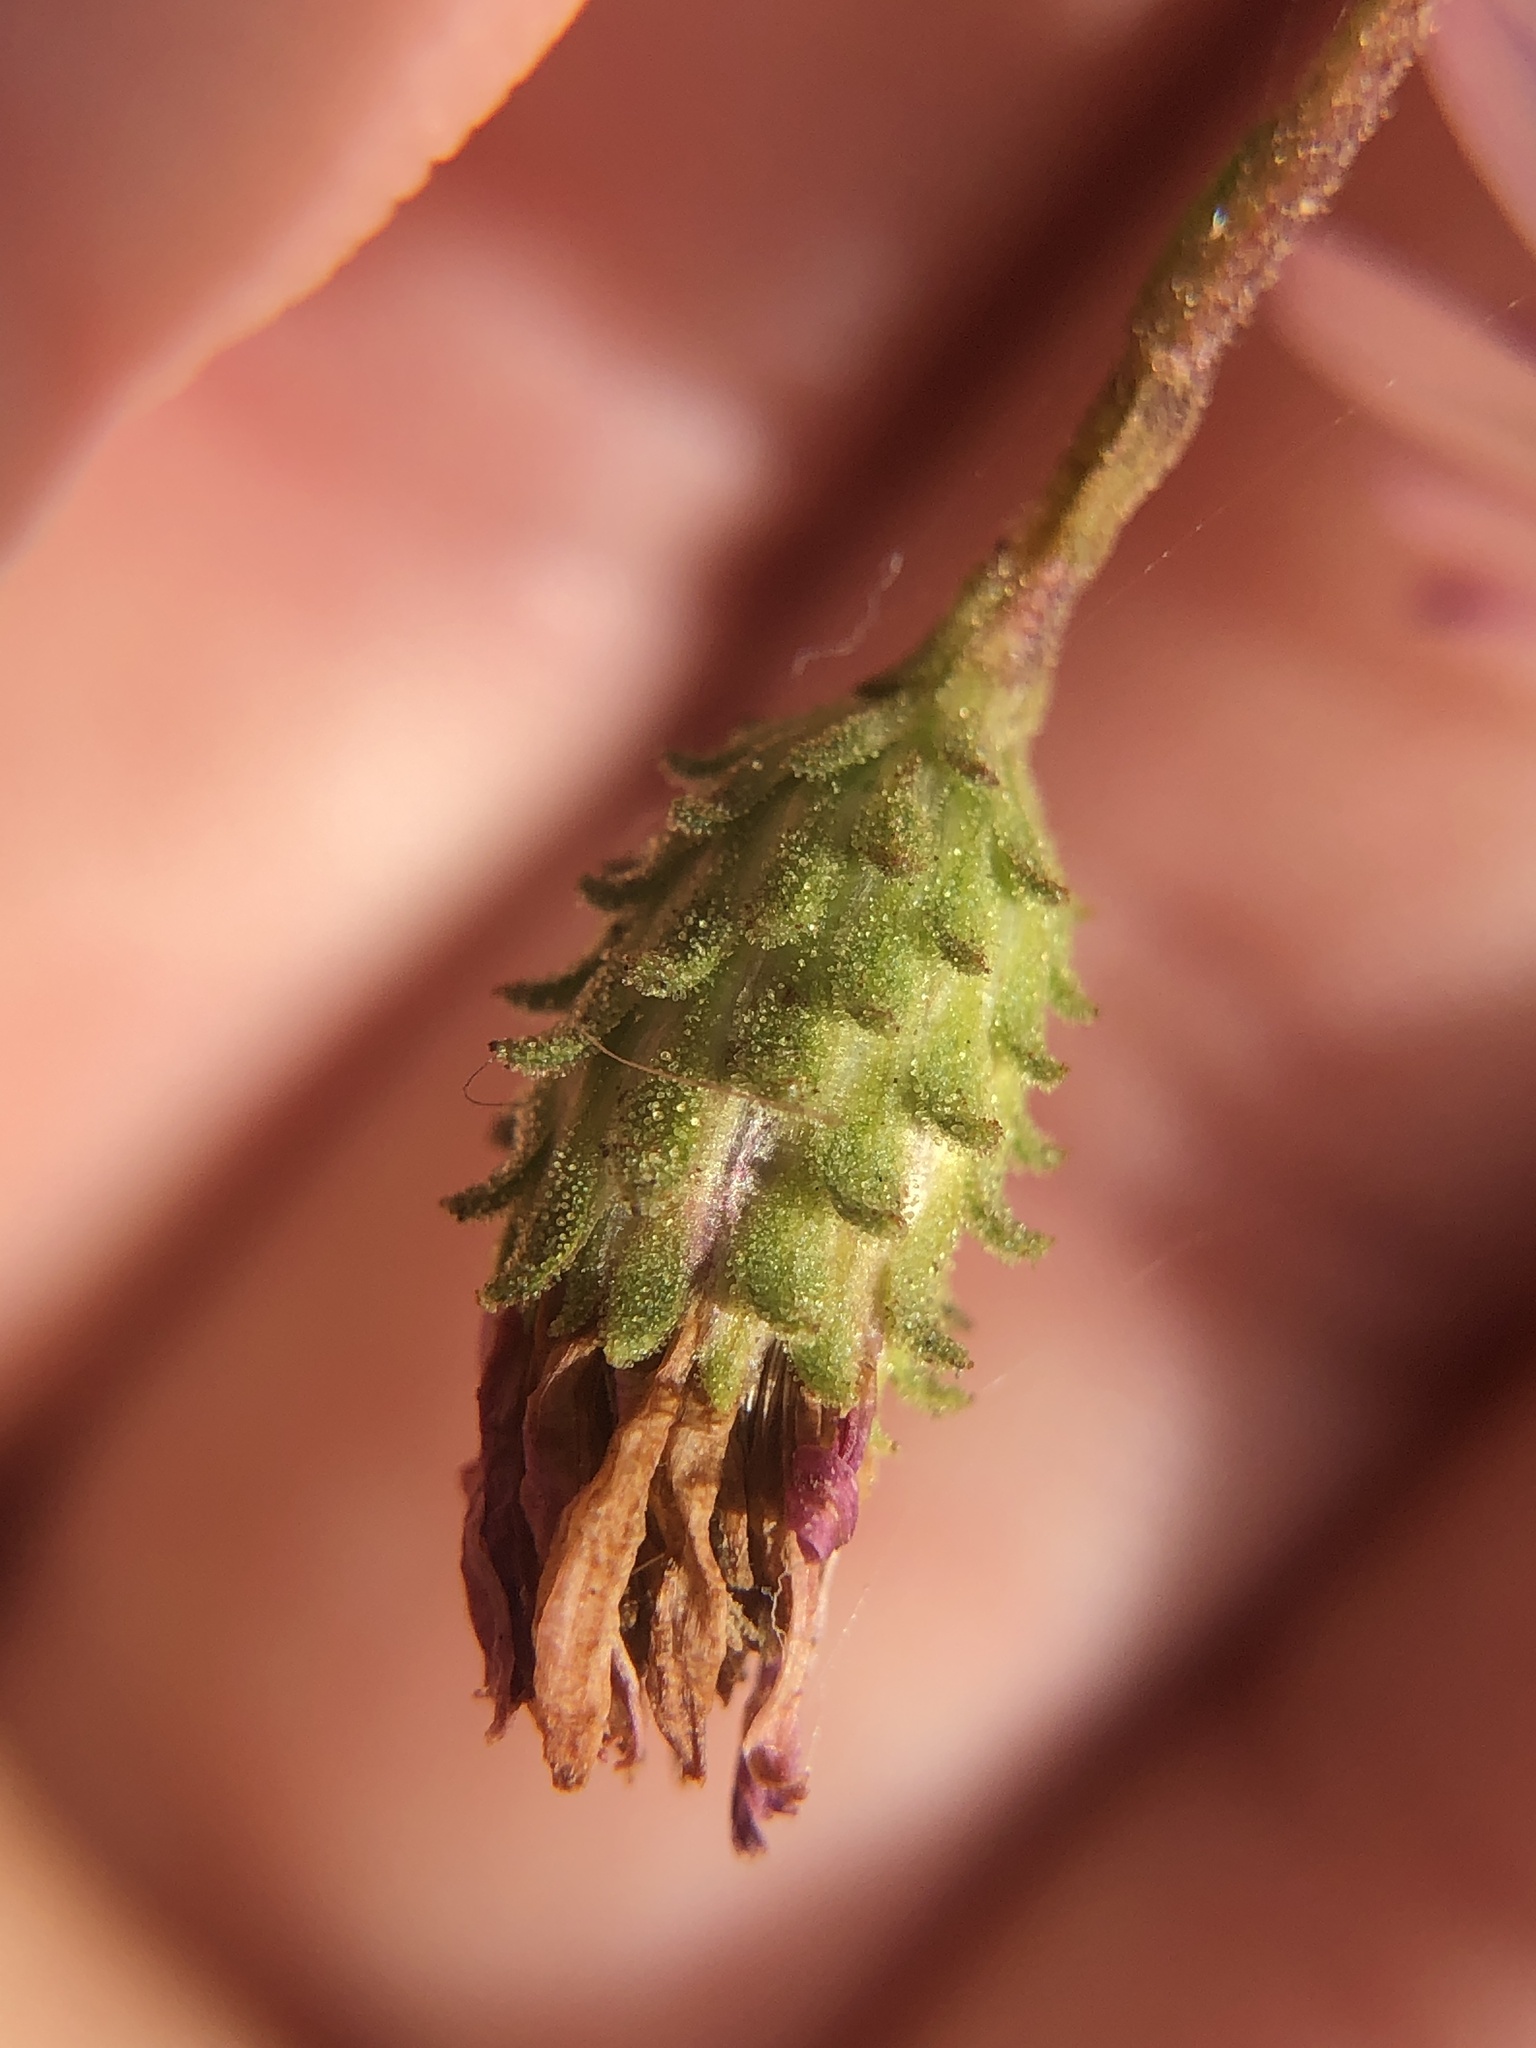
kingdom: Plantae
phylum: Tracheophyta
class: Magnoliopsida
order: Asterales
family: Asteraceae
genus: Corethrogyne
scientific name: Corethrogyne filaginifolia
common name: Sand-aster
